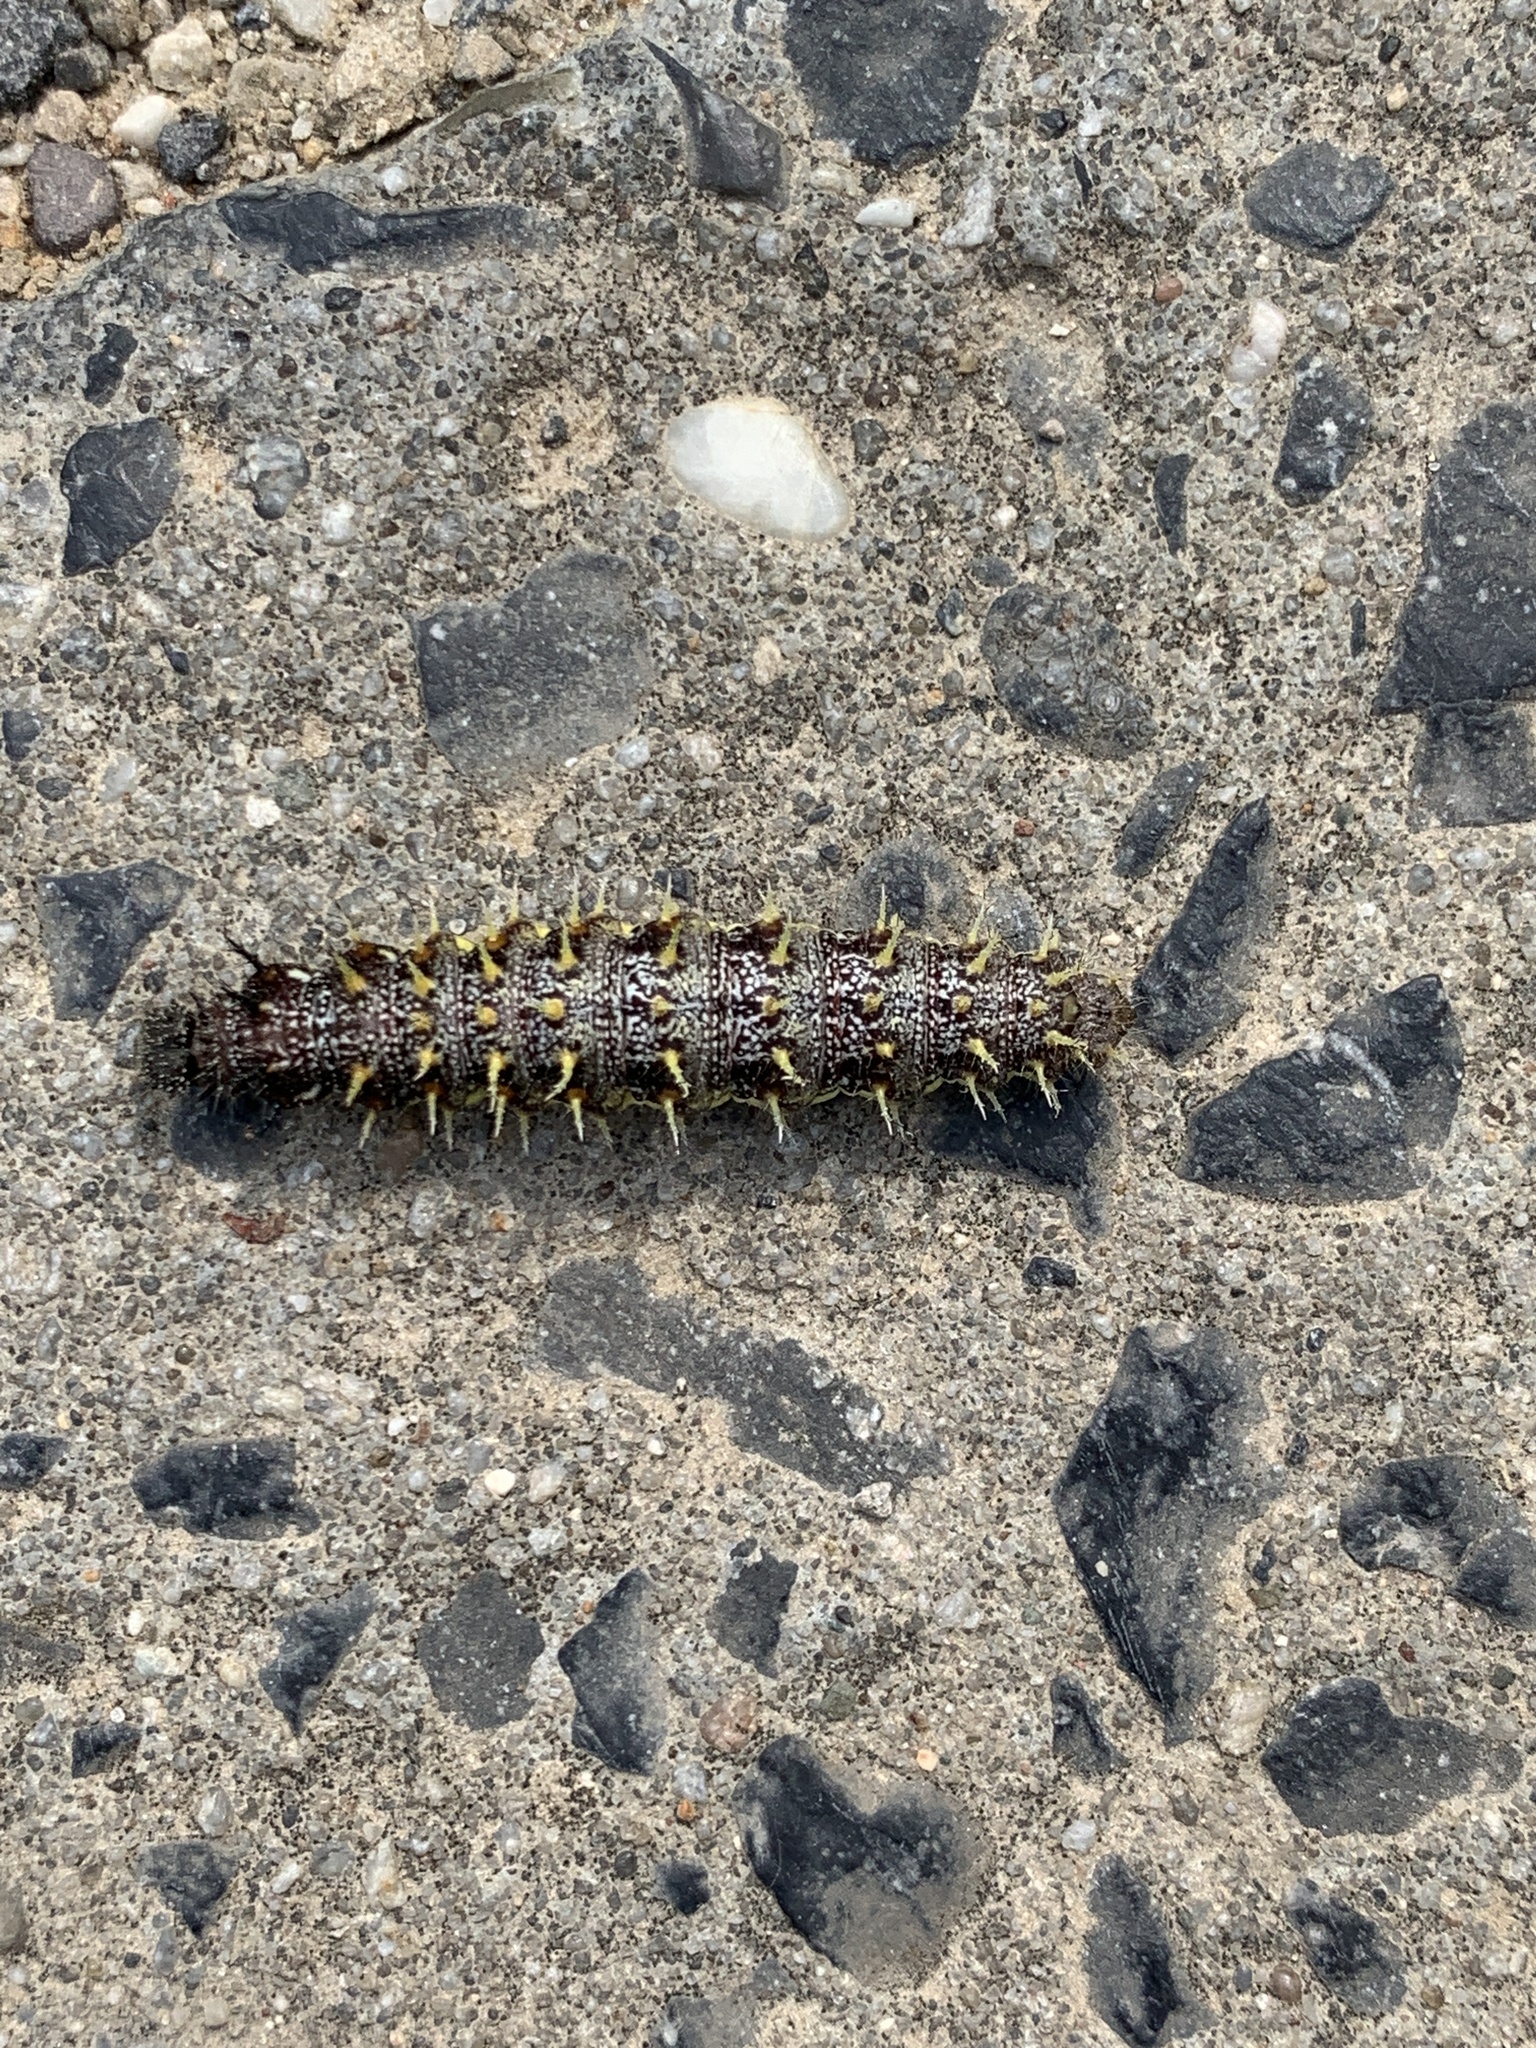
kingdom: Animalia
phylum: Arthropoda
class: Insecta
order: Lepidoptera
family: Nymphalidae
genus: Vanessa
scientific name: Vanessa cardui
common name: Painted lady
